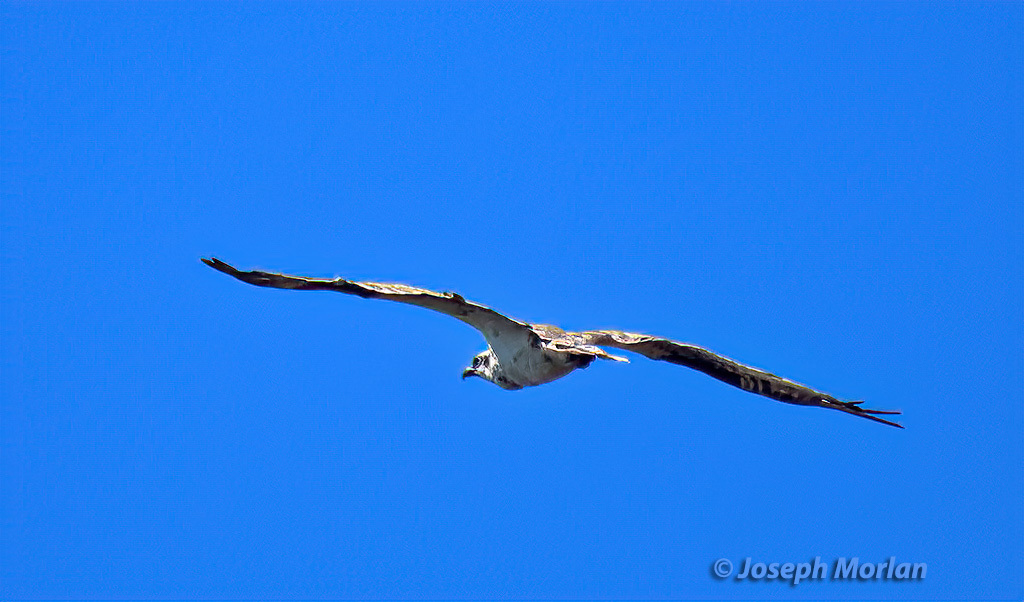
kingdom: Animalia
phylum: Chordata
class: Aves
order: Accipitriformes
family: Pandionidae
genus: Pandion
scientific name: Pandion haliaetus
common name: Osprey
